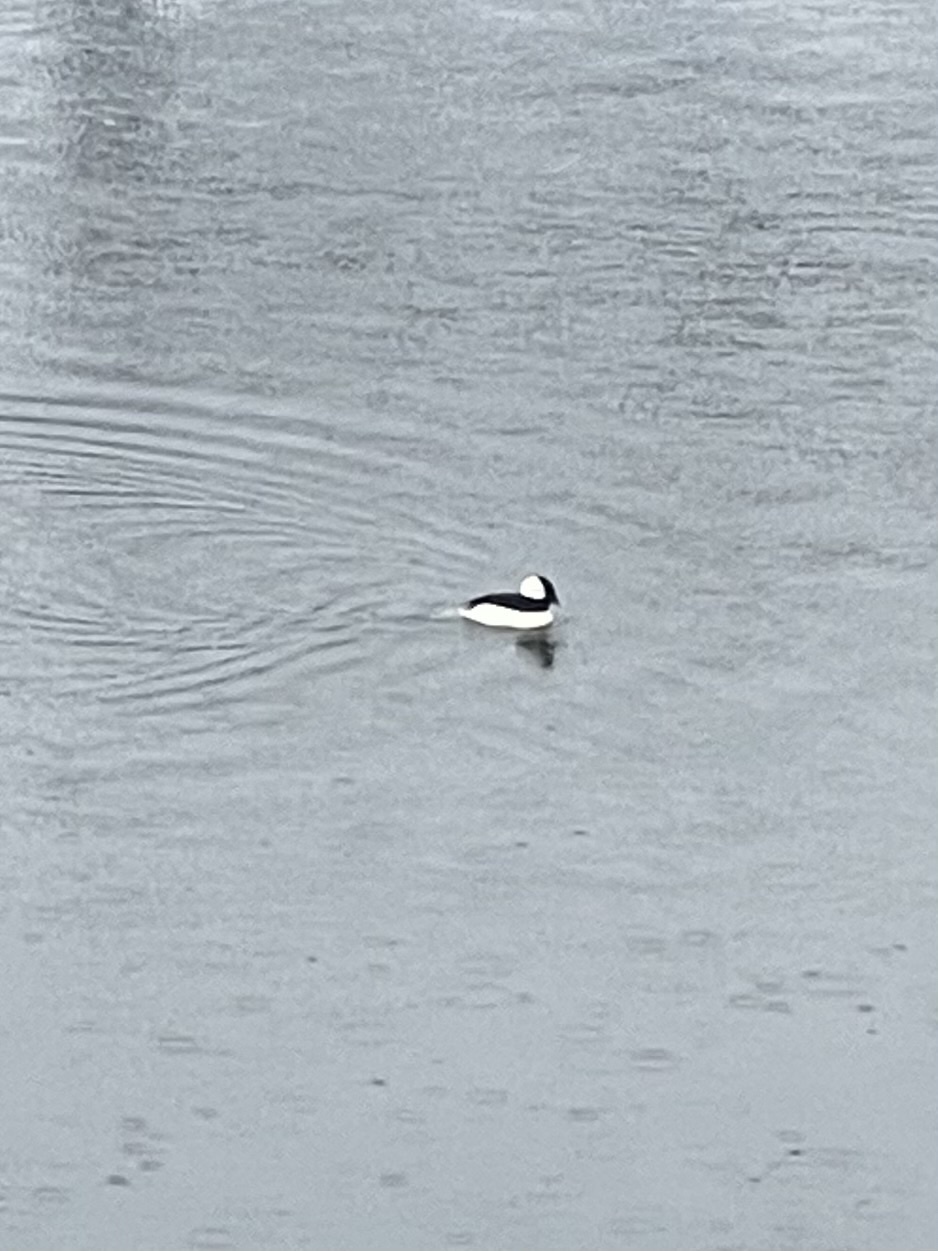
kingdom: Animalia
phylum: Chordata
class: Aves
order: Anseriformes
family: Anatidae
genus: Bucephala
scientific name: Bucephala albeola
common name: Bufflehead
